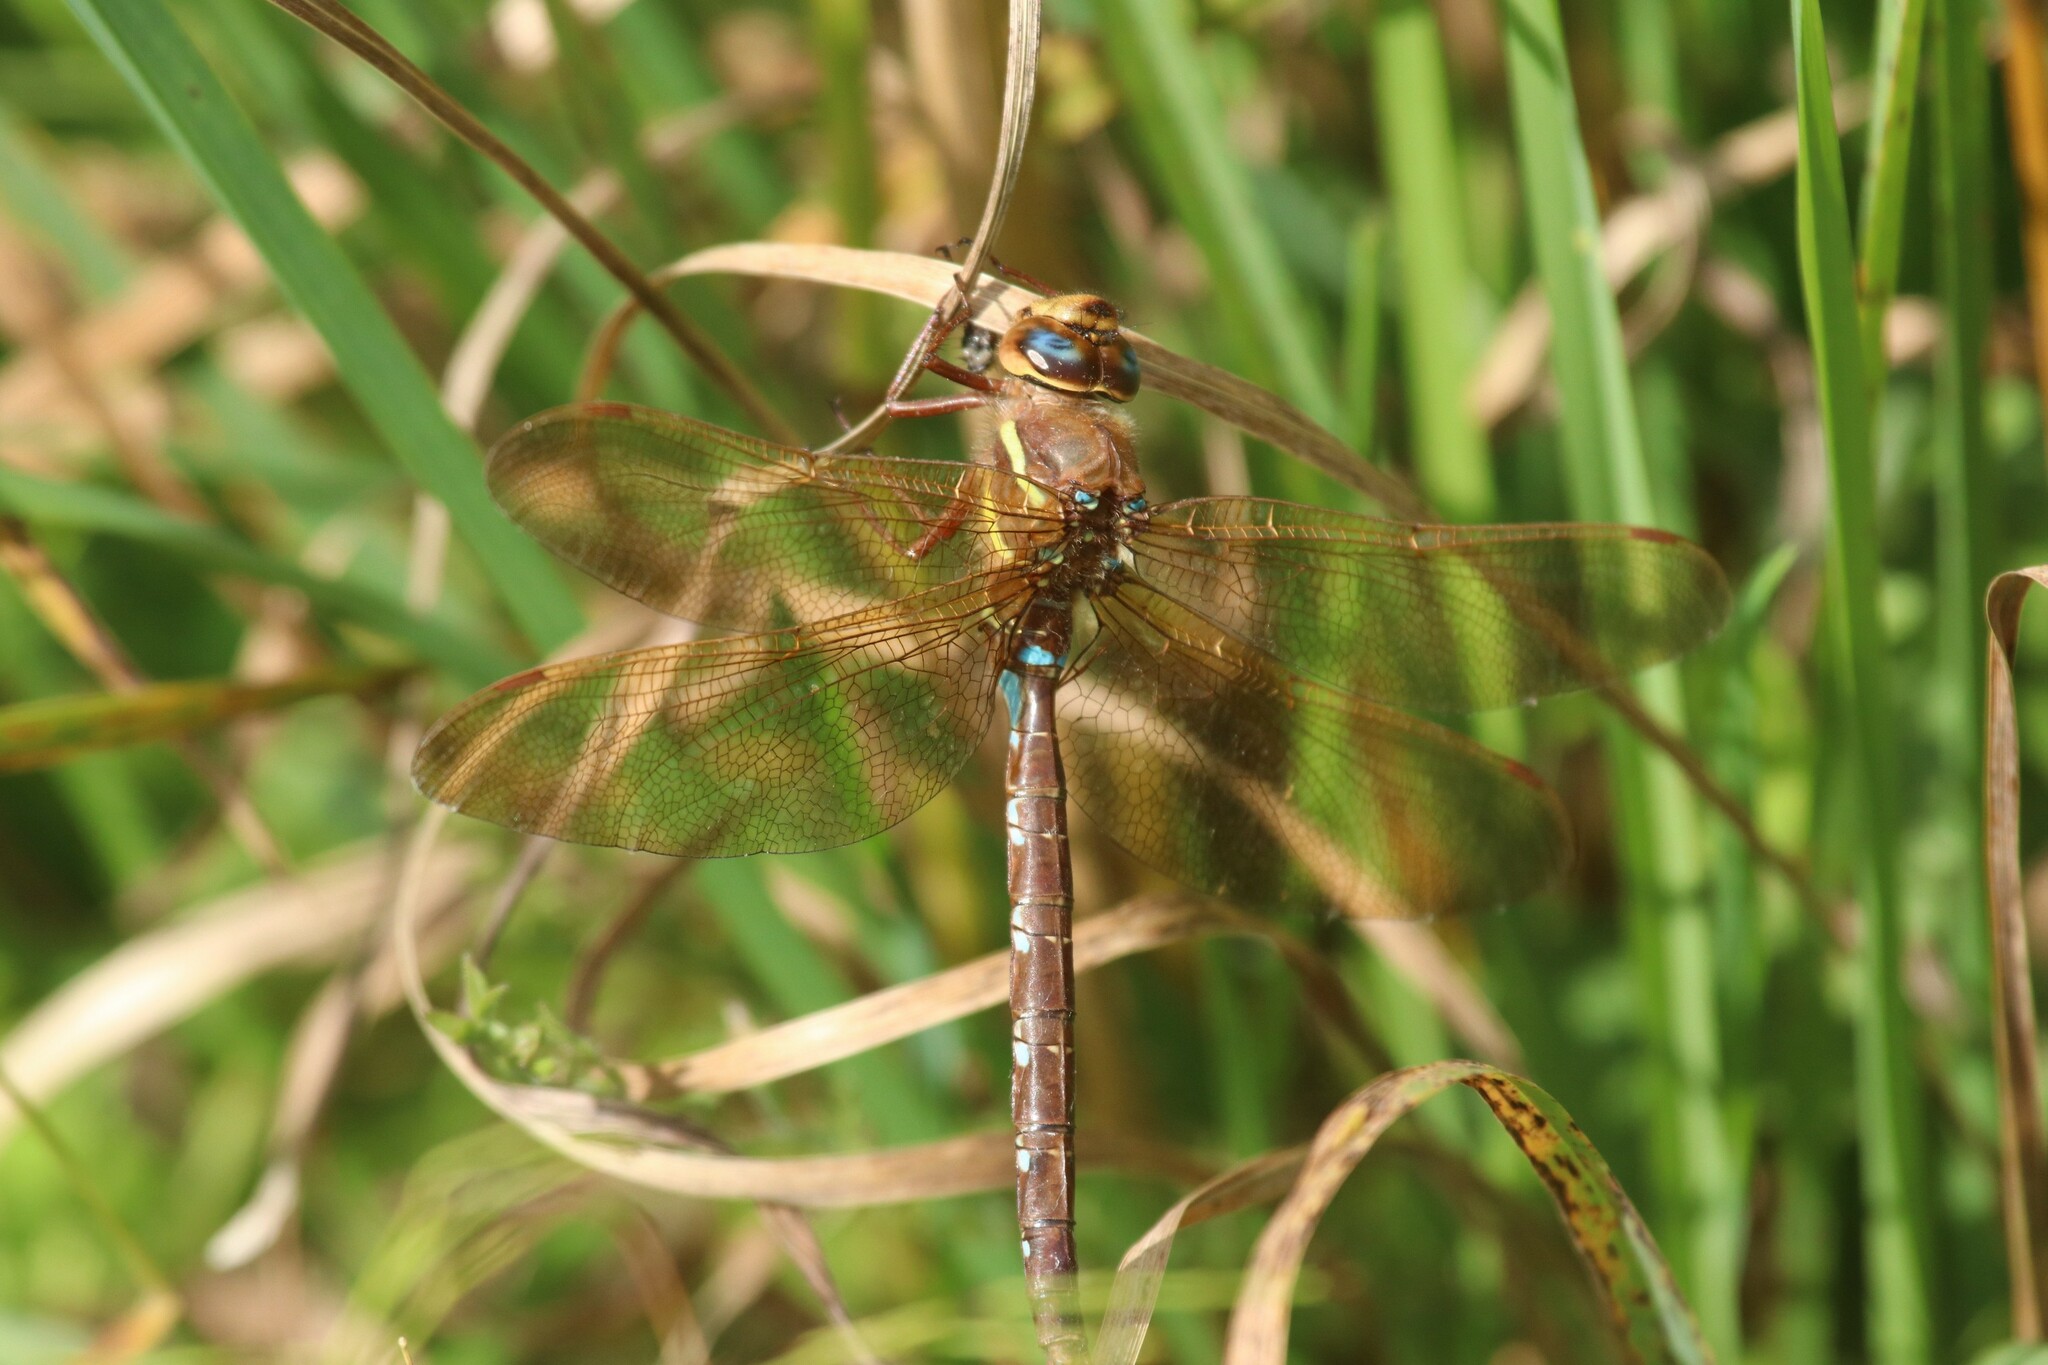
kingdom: Animalia
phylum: Arthropoda
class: Insecta
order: Odonata
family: Aeshnidae
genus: Aeshna
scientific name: Aeshna grandis
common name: Brown hawker
